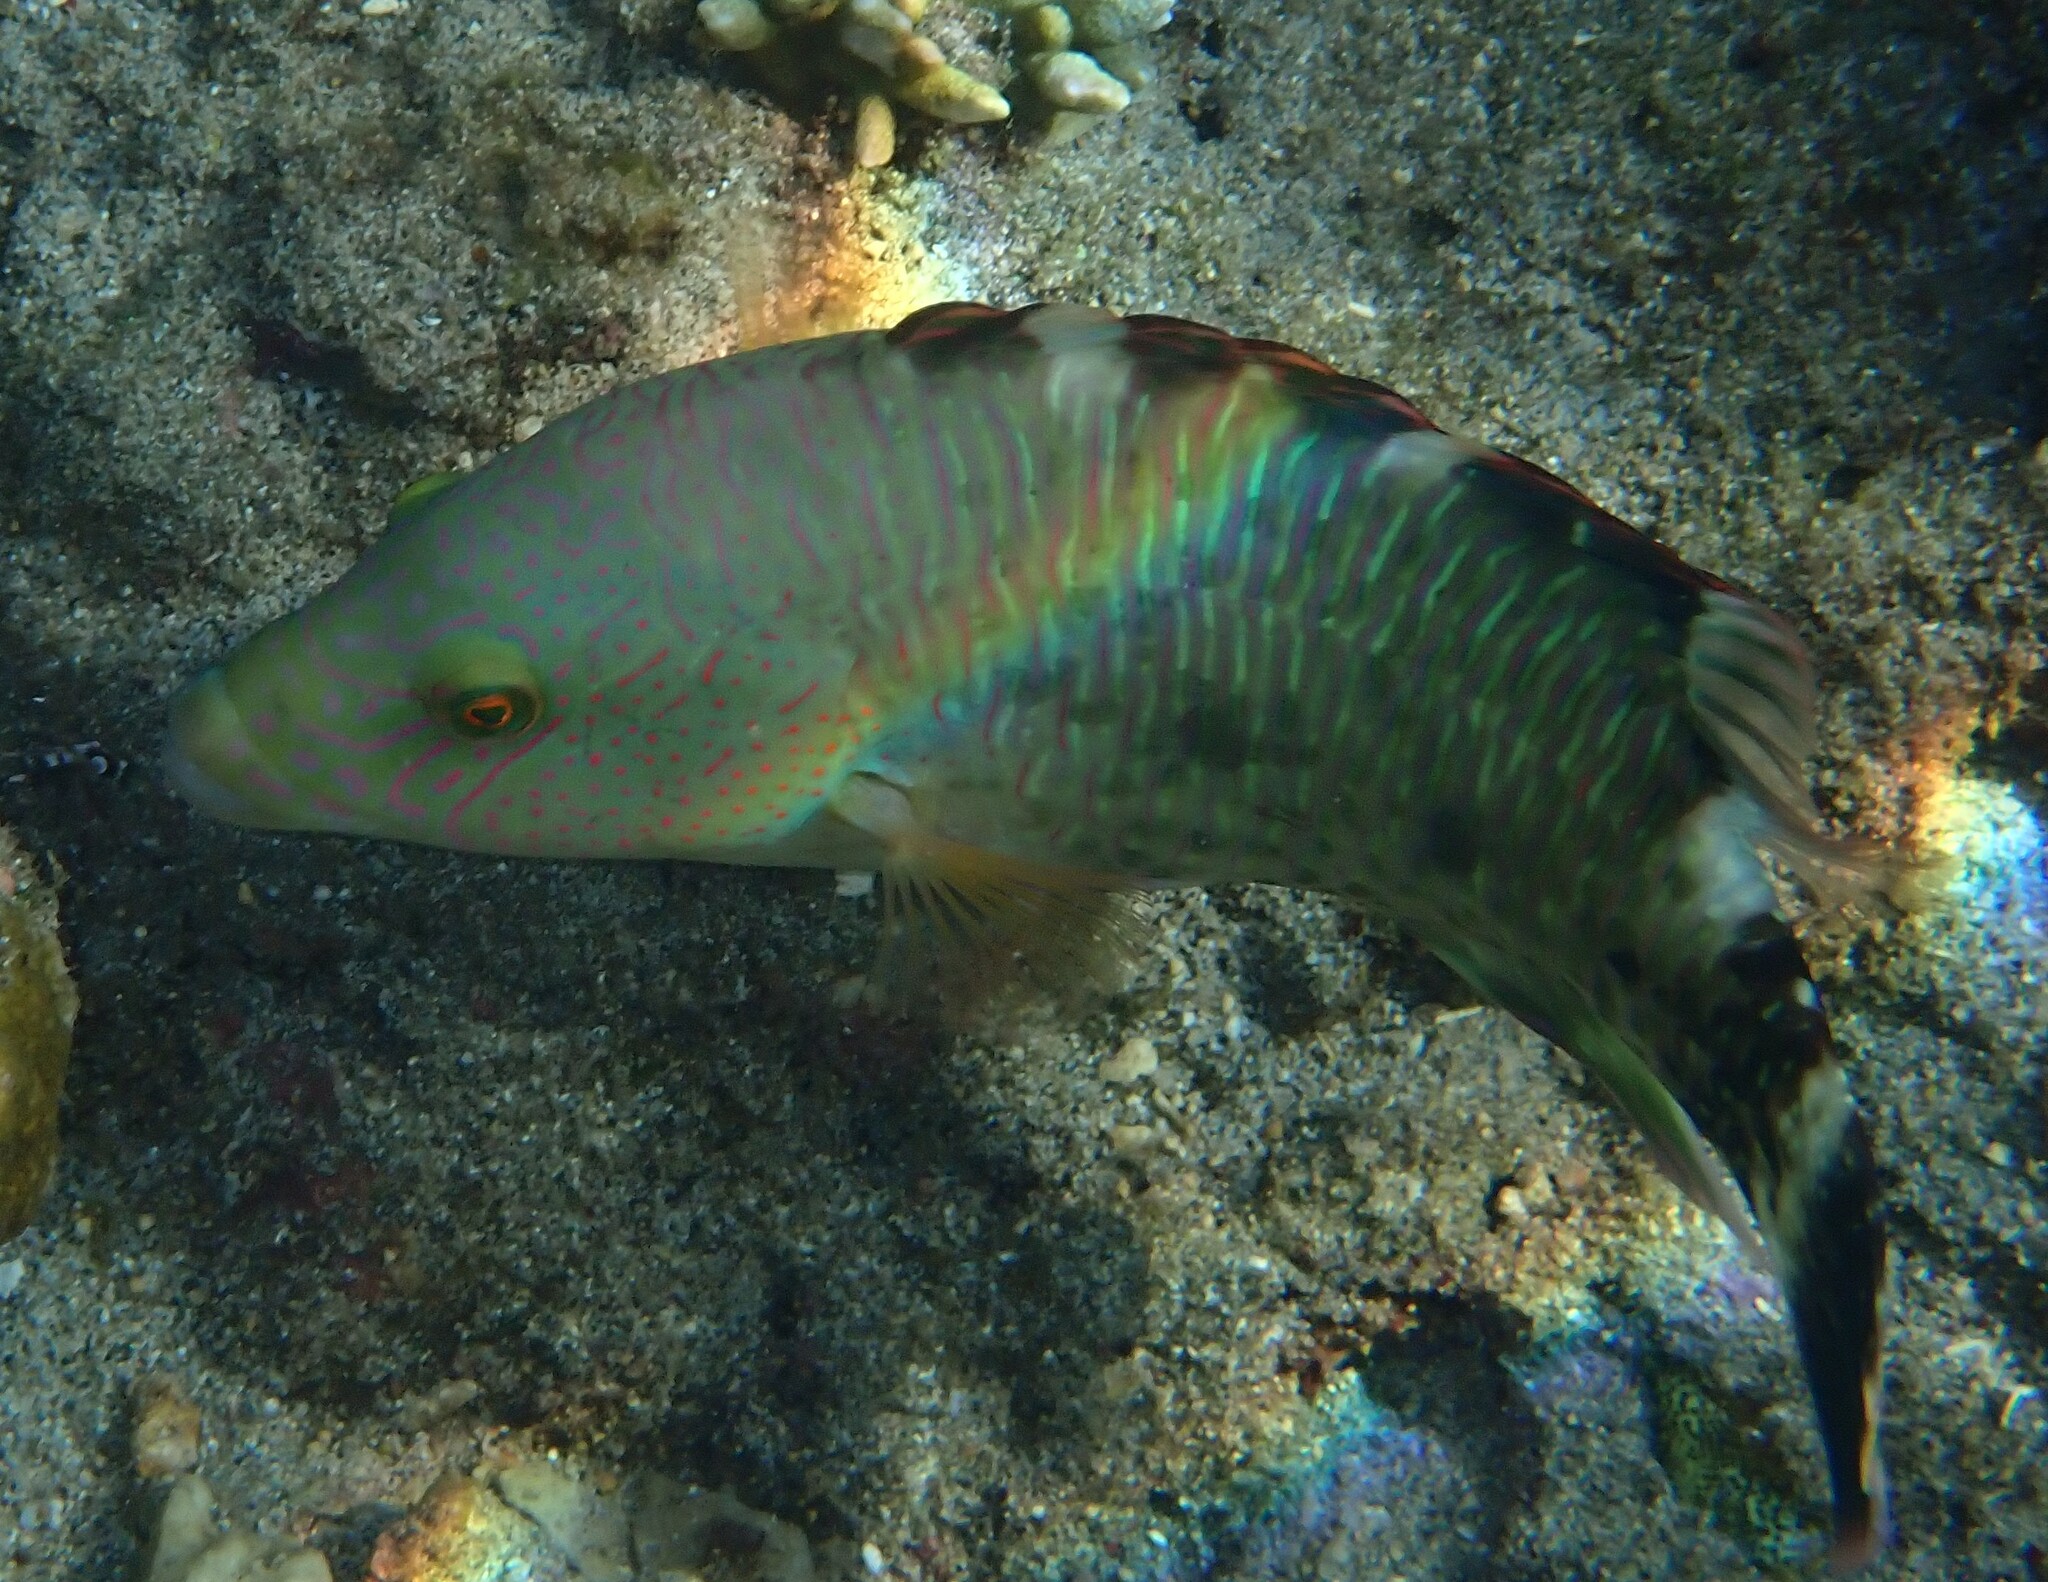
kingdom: Animalia
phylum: Chordata
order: Perciformes
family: Labridae
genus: Cheilinus
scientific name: Cheilinus trilobatus
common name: Tripletail maori wrasse
